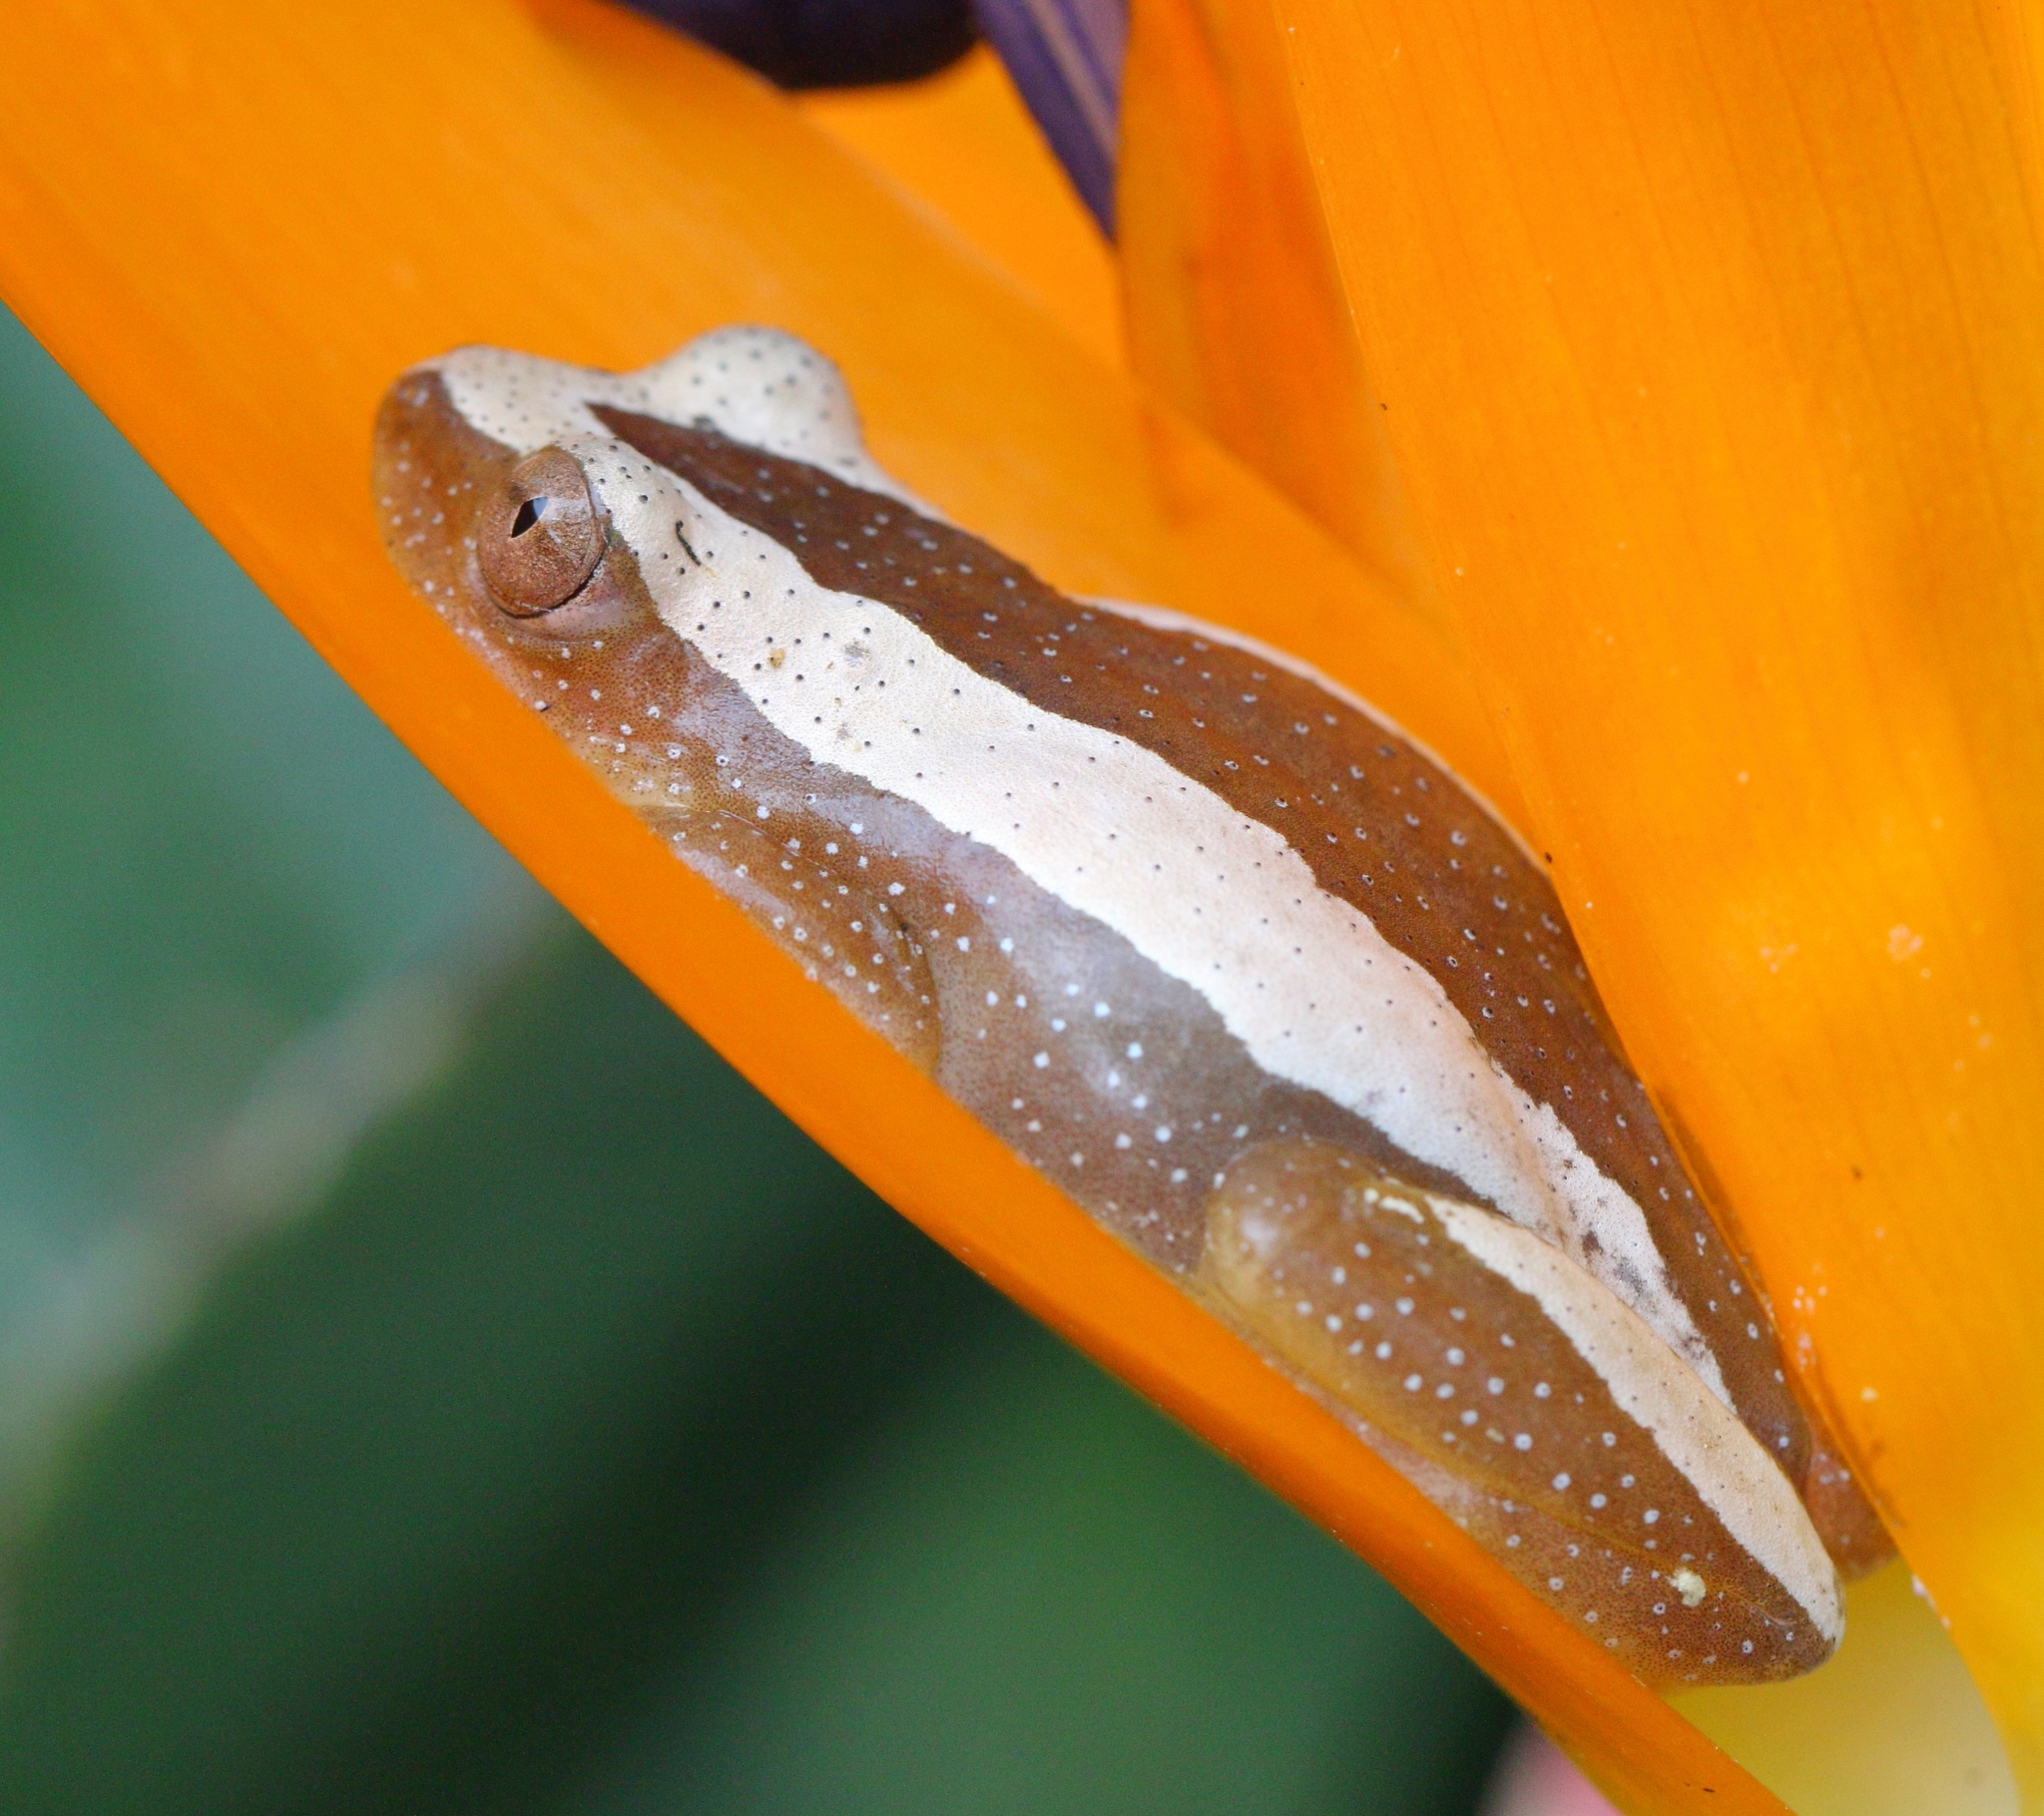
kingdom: Animalia
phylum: Chordata
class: Amphibia
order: Anura
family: Hyperoliidae
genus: Afrixalus
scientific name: Afrixalus fornasini
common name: Fornasini's spiny reed frog
